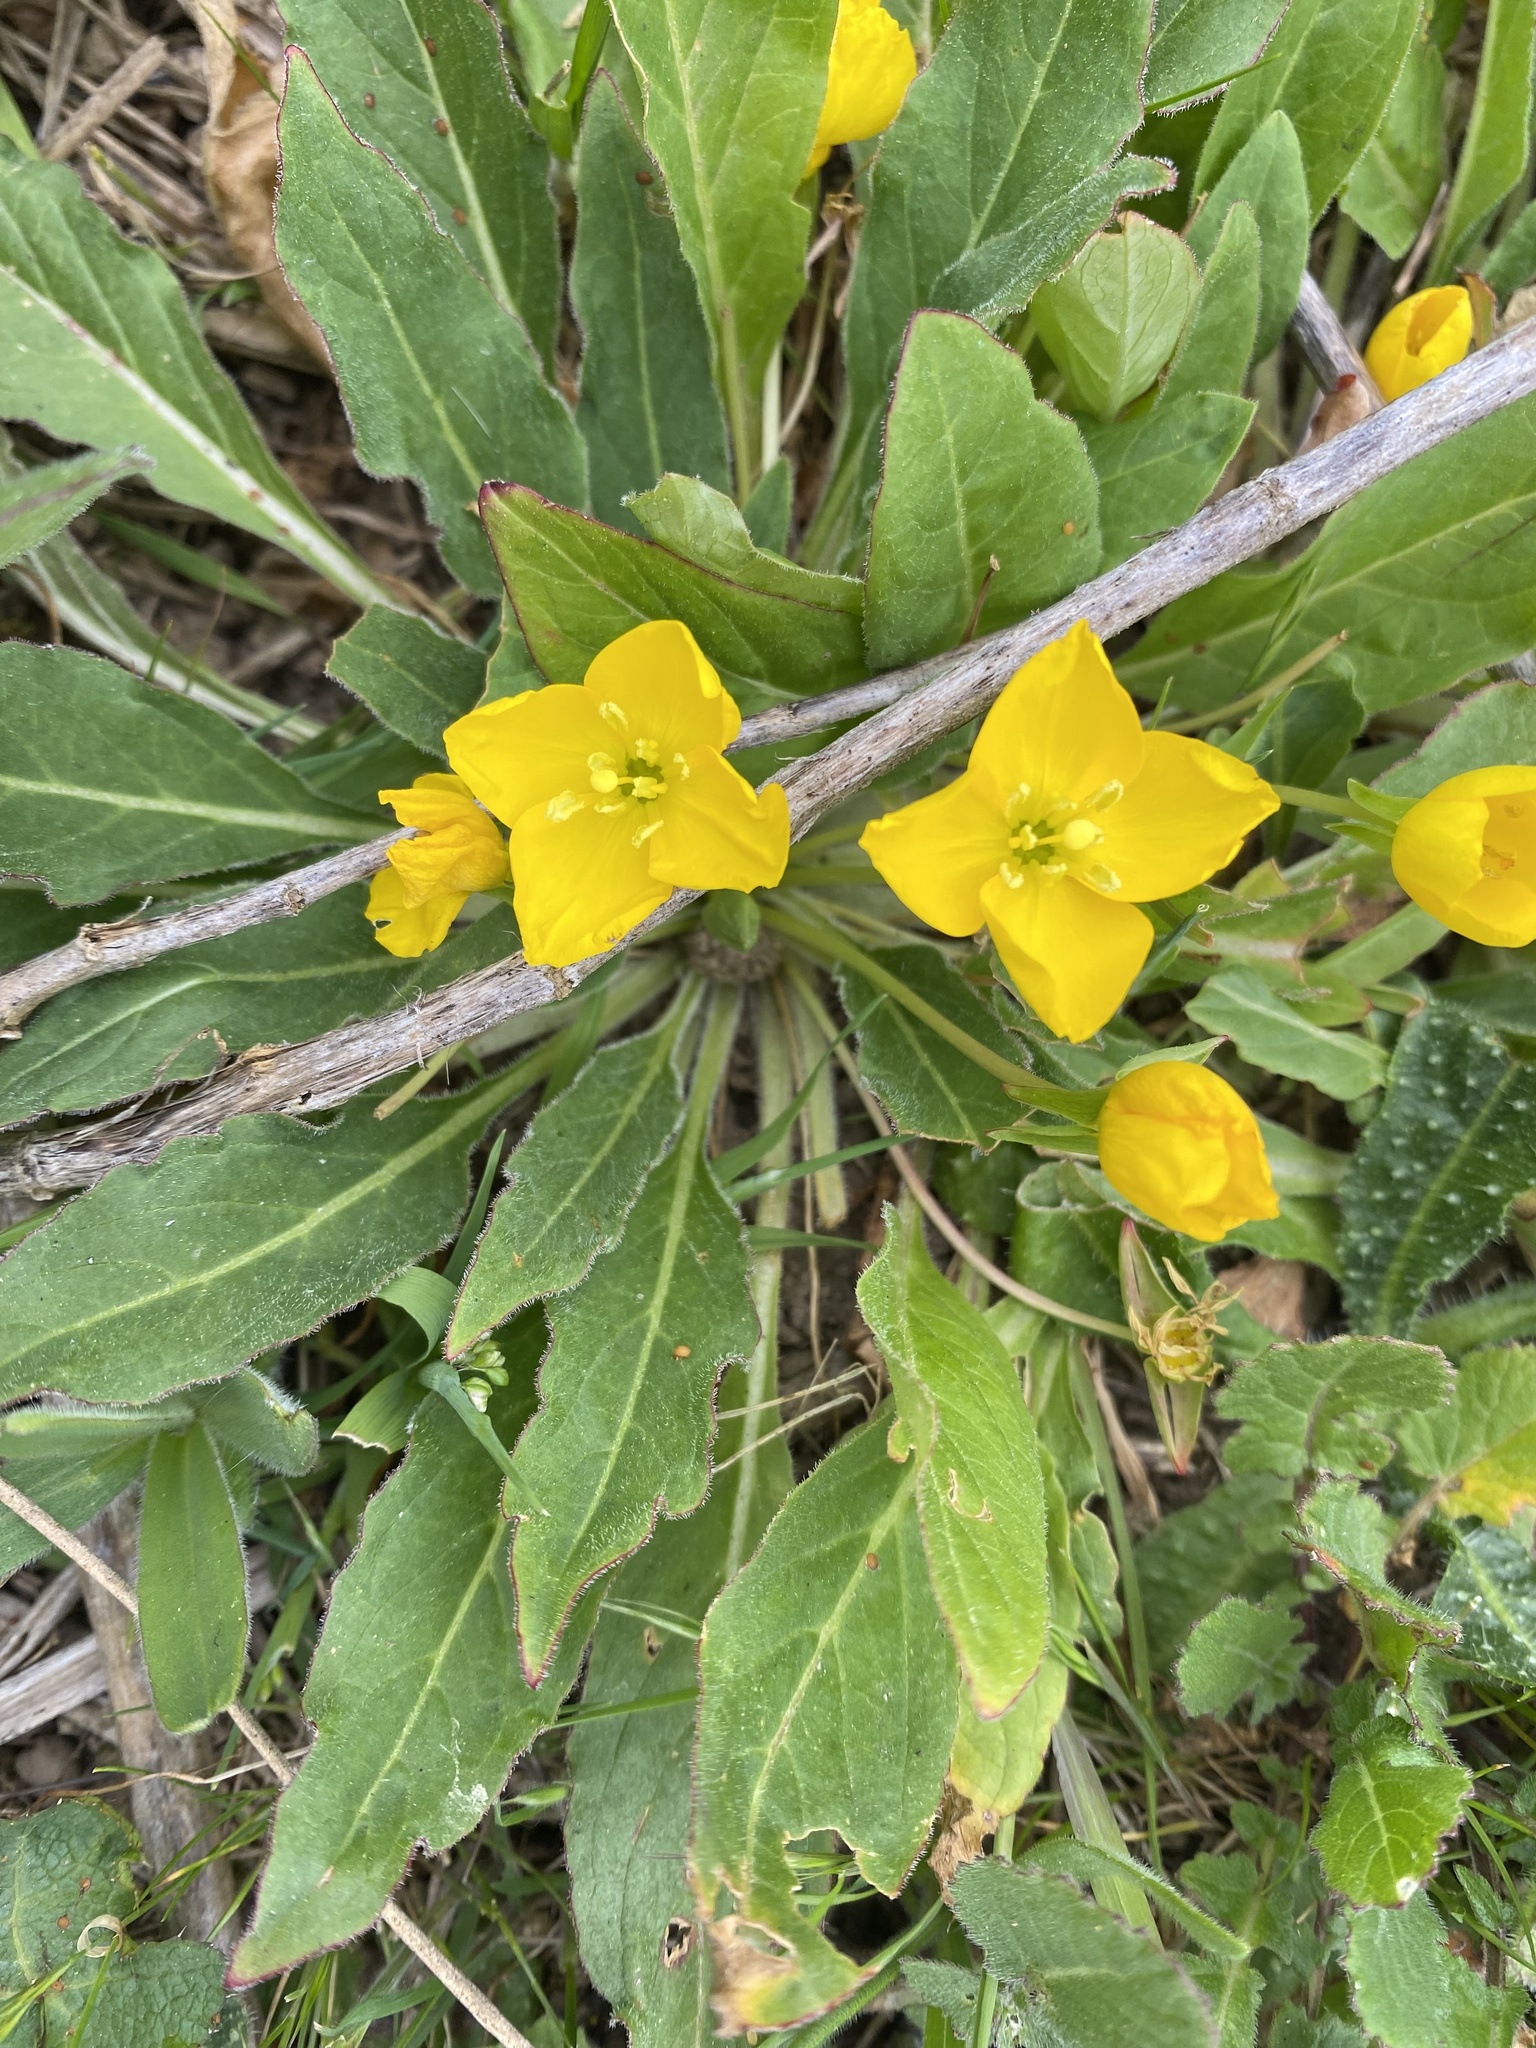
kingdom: Plantae
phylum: Tracheophyta
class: Magnoliopsida
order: Myrtales
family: Onagraceae
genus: Taraxia
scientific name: Taraxia ovata
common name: Goldeneggs
